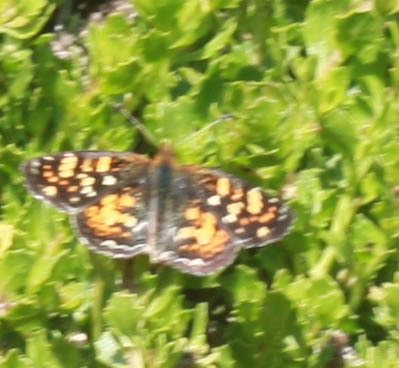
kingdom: Animalia
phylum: Arthropoda
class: Insecta
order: Lepidoptera
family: Nymphalidae
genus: Phyciodes
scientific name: Phyciodes tharos
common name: Pearl crescent
